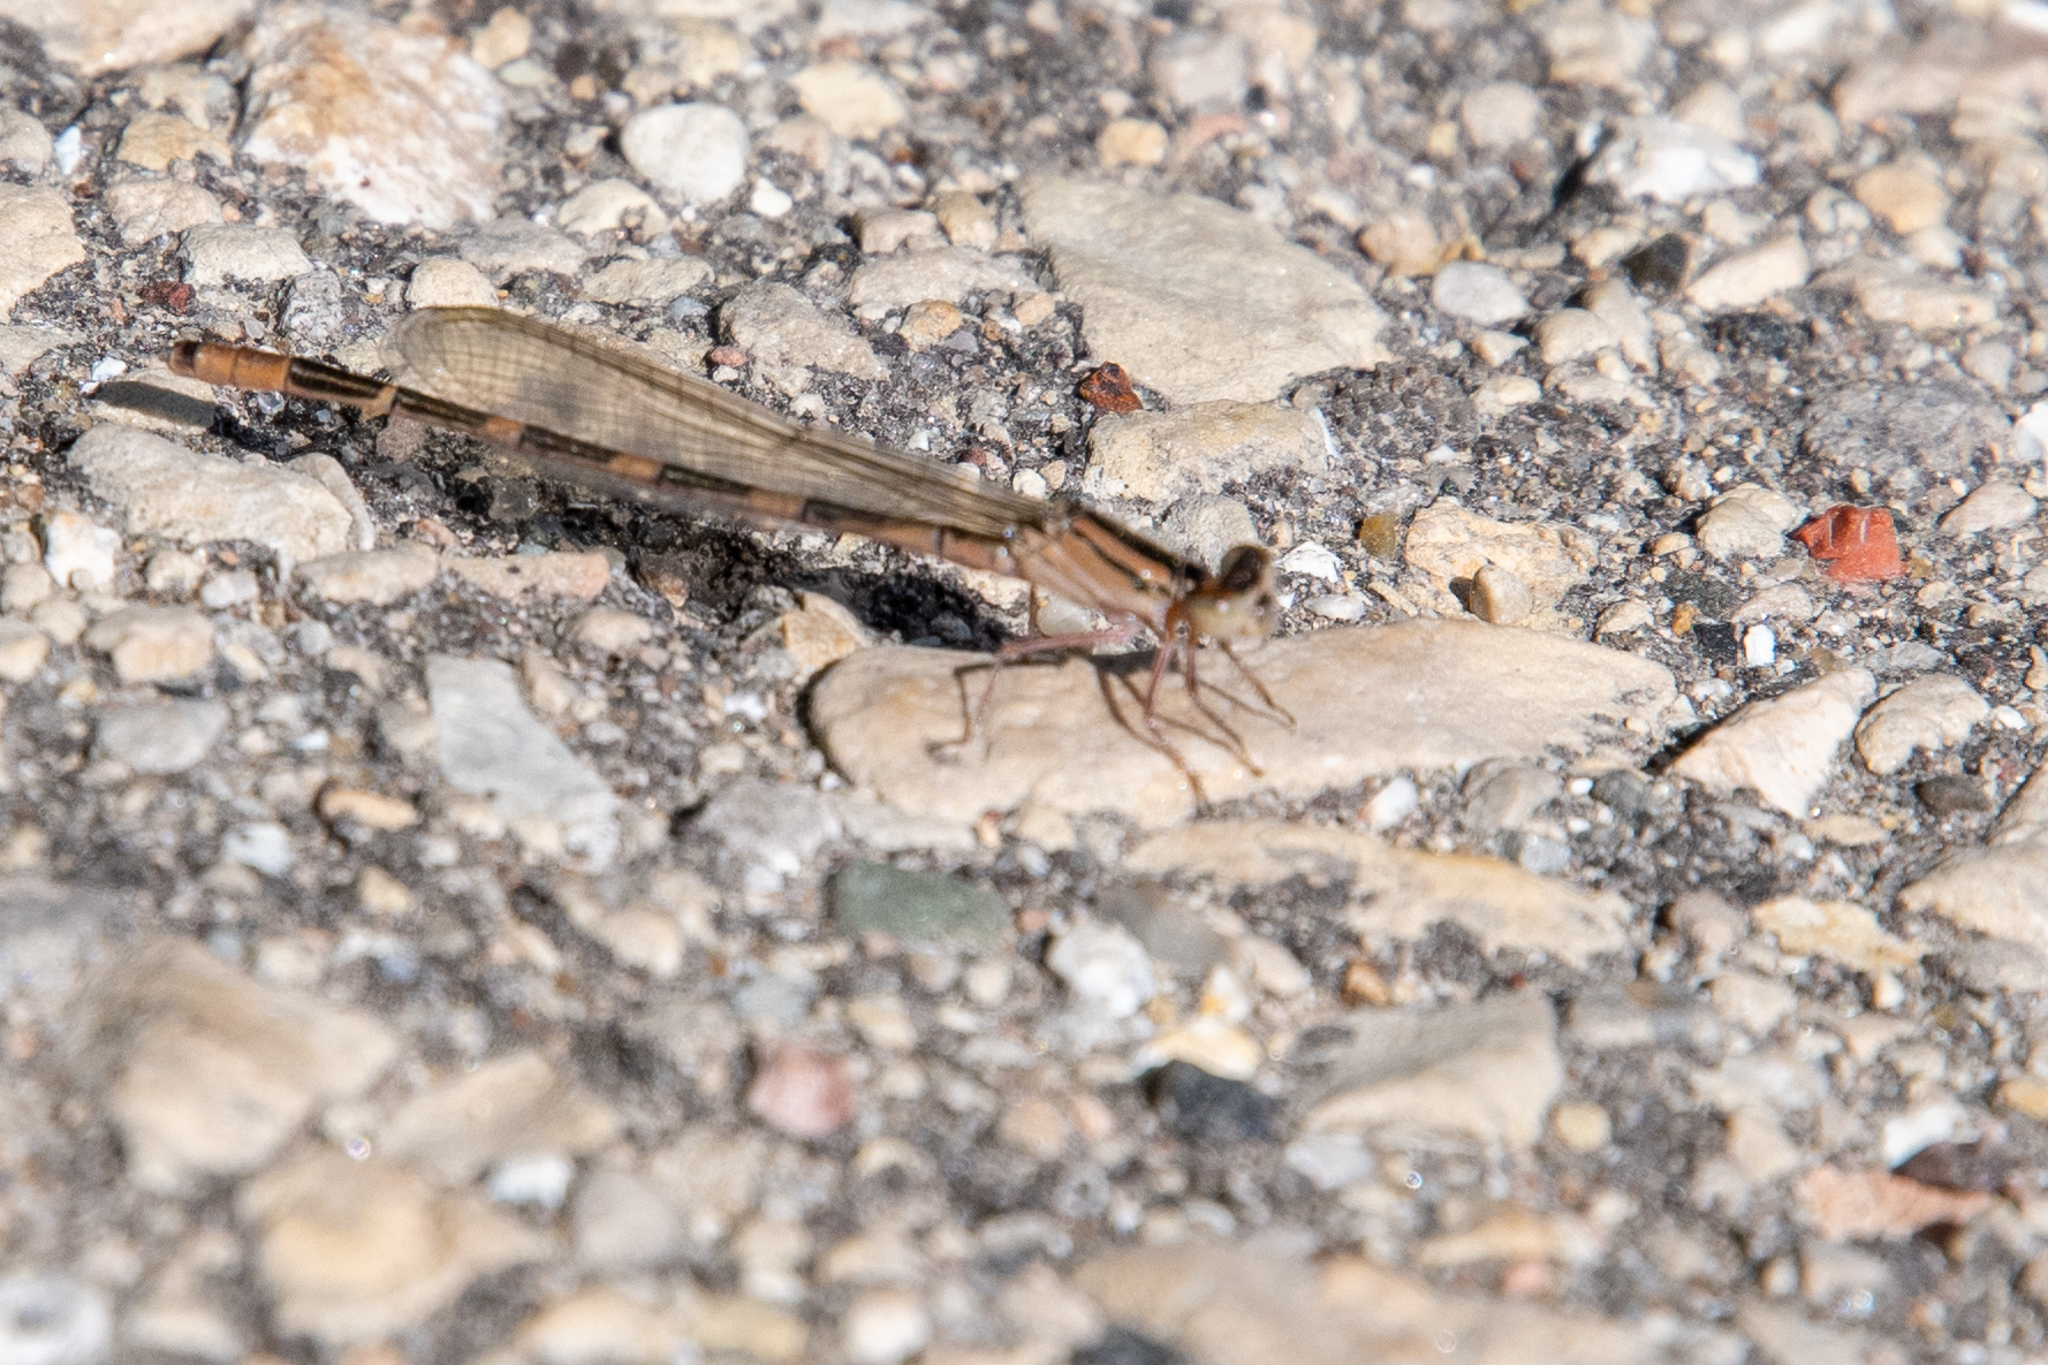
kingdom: Animalia
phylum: Arthropoda
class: Insecta
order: Odonata
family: Coenagrionidae
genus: Enallagma
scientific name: Enallagma carunculatum
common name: Tule bluet
